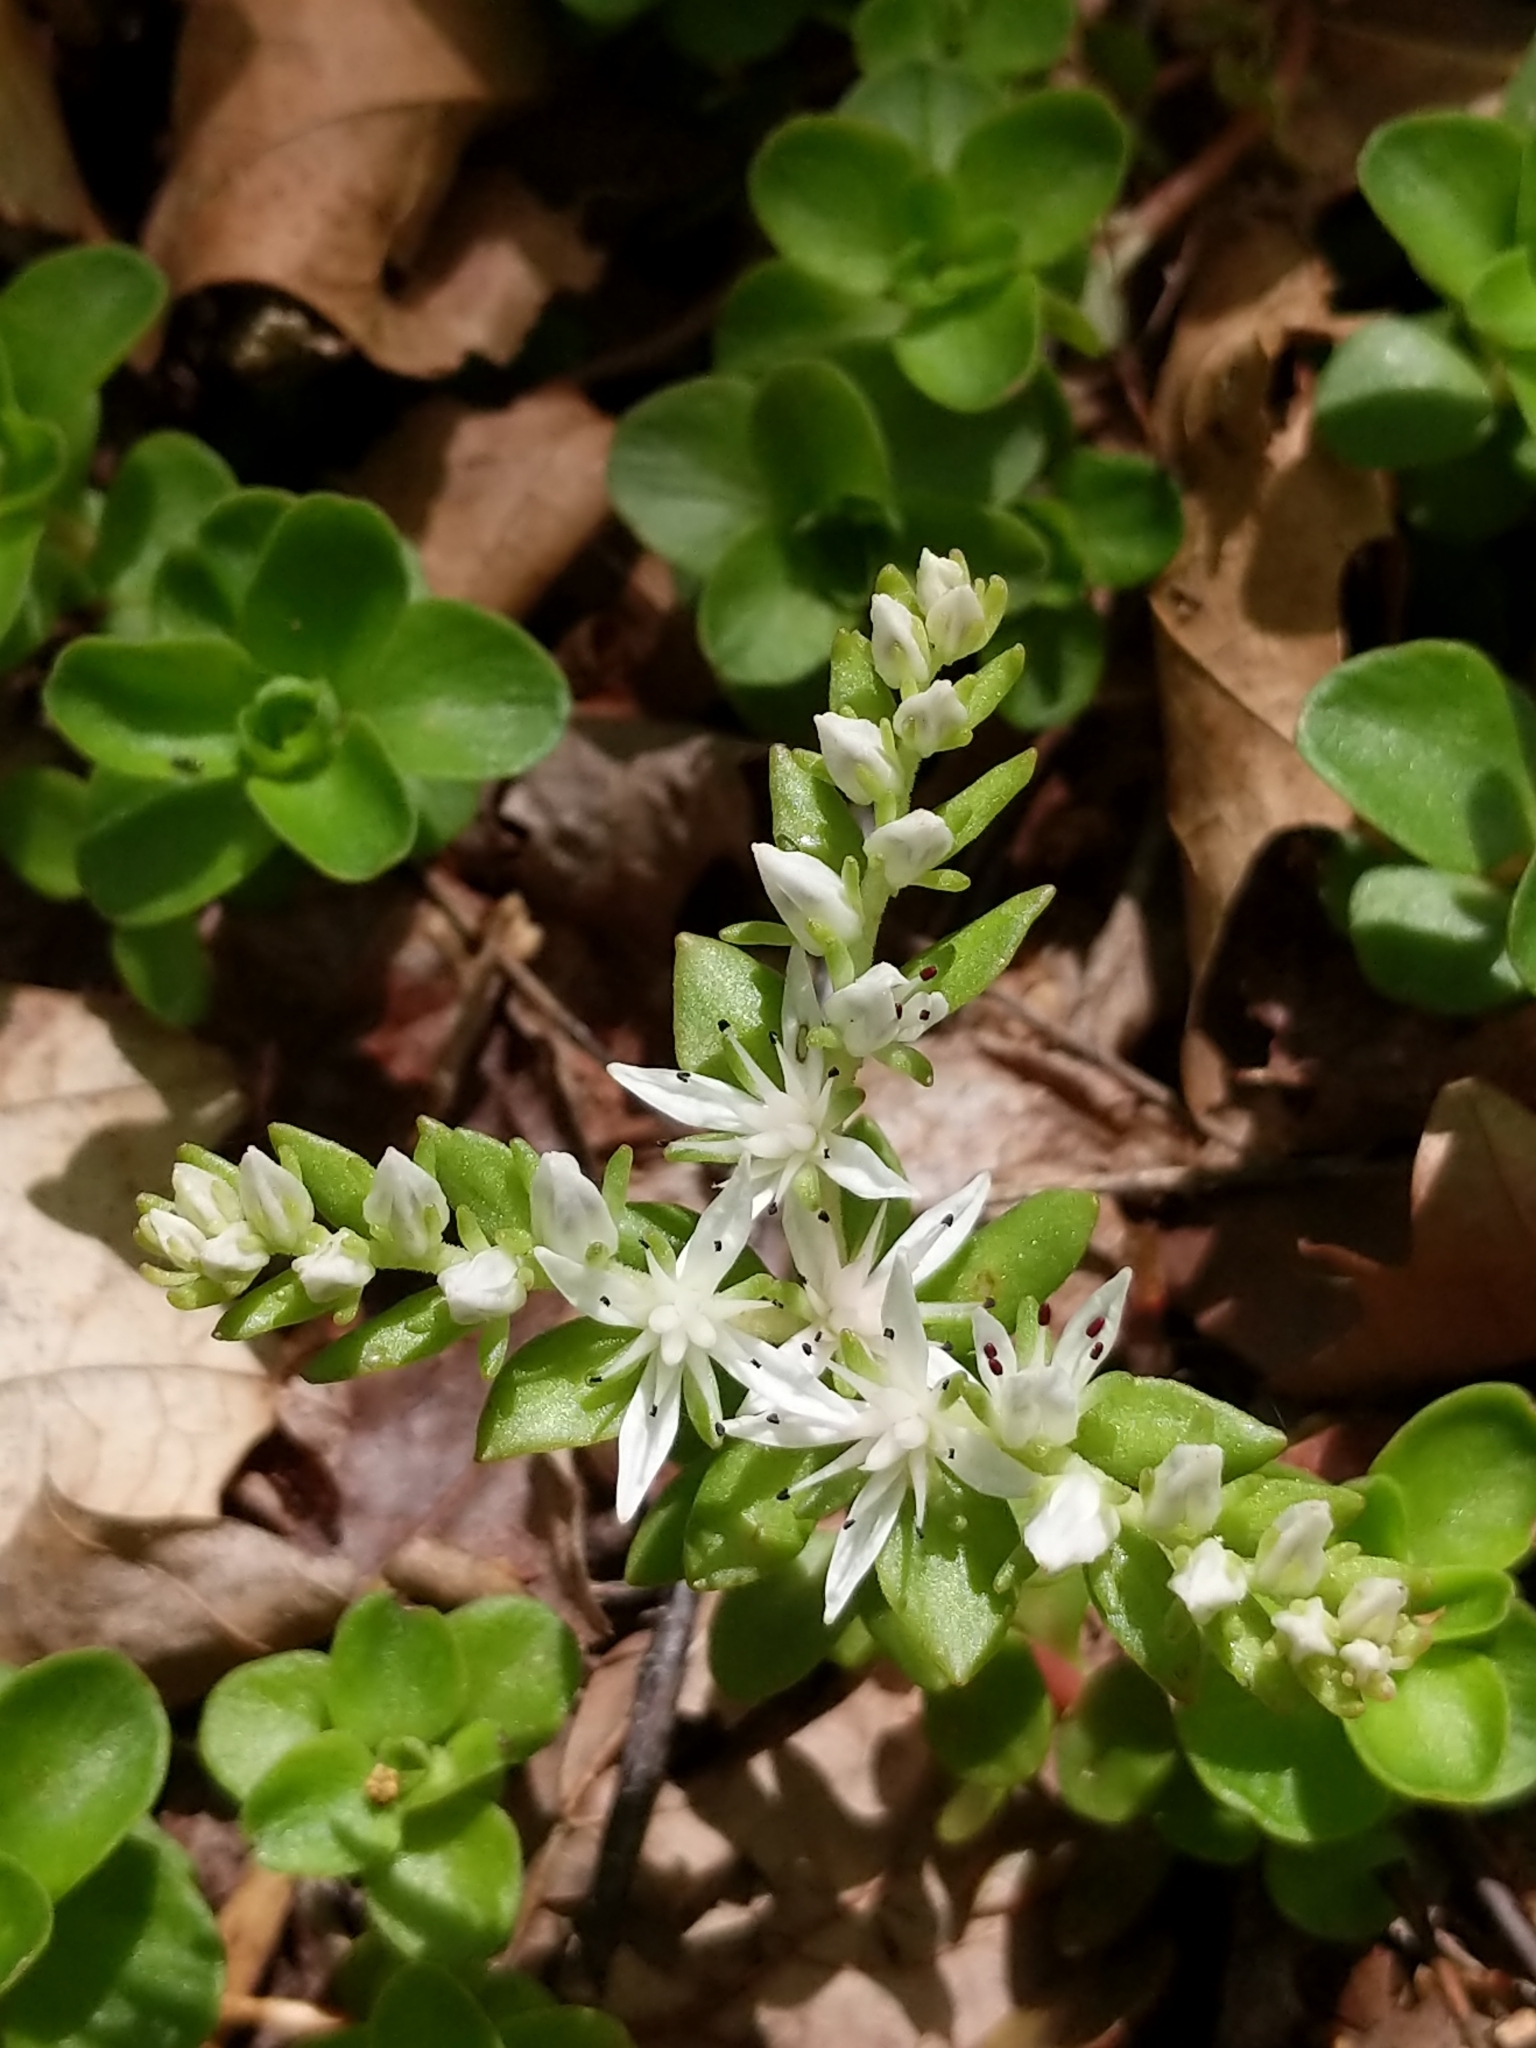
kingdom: Plantae
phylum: Tracheophyta
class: Magnoliopsida
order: Saxifragales
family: Crassulaceae
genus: Sedum
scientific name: Sedum ternatum
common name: Wild stonecrop
